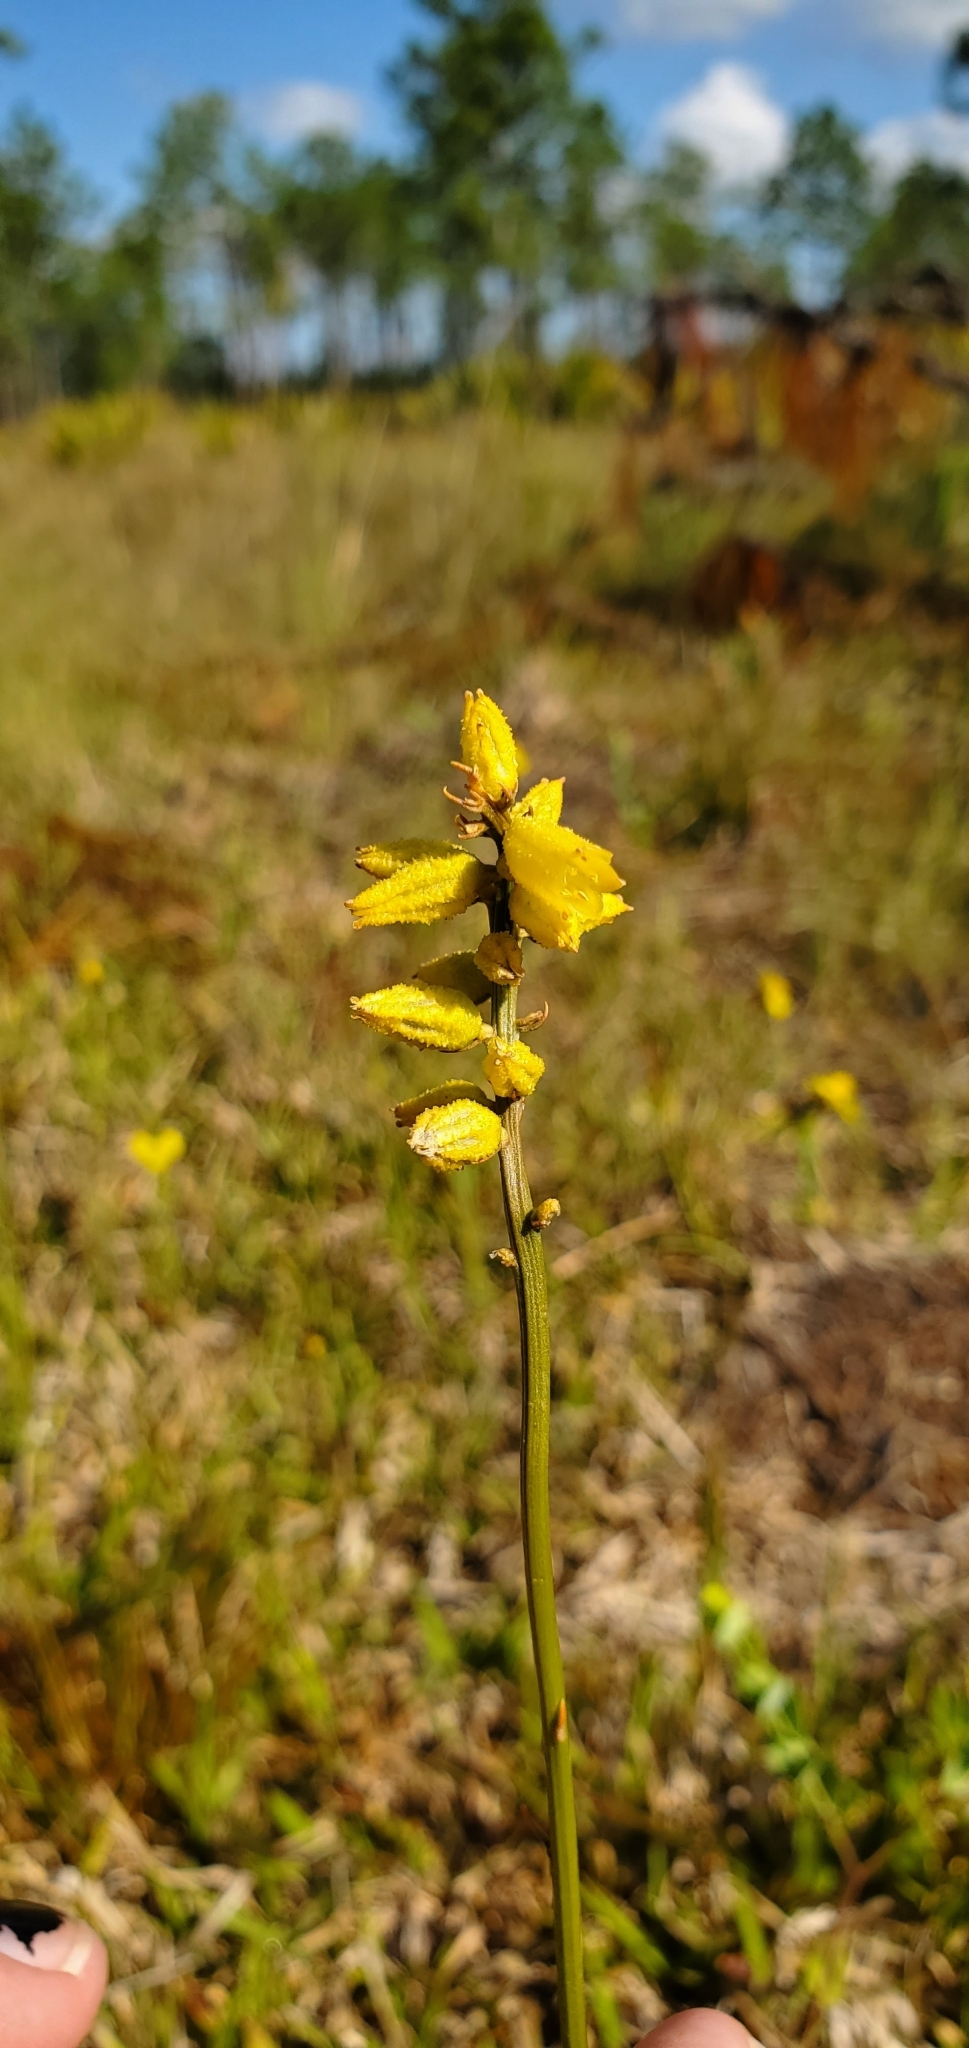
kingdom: Plantae
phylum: Tracheophyta
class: Liliopsida
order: Dioscoreales
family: Nartheciaceae
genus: Aletris
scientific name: Aletris lutea
